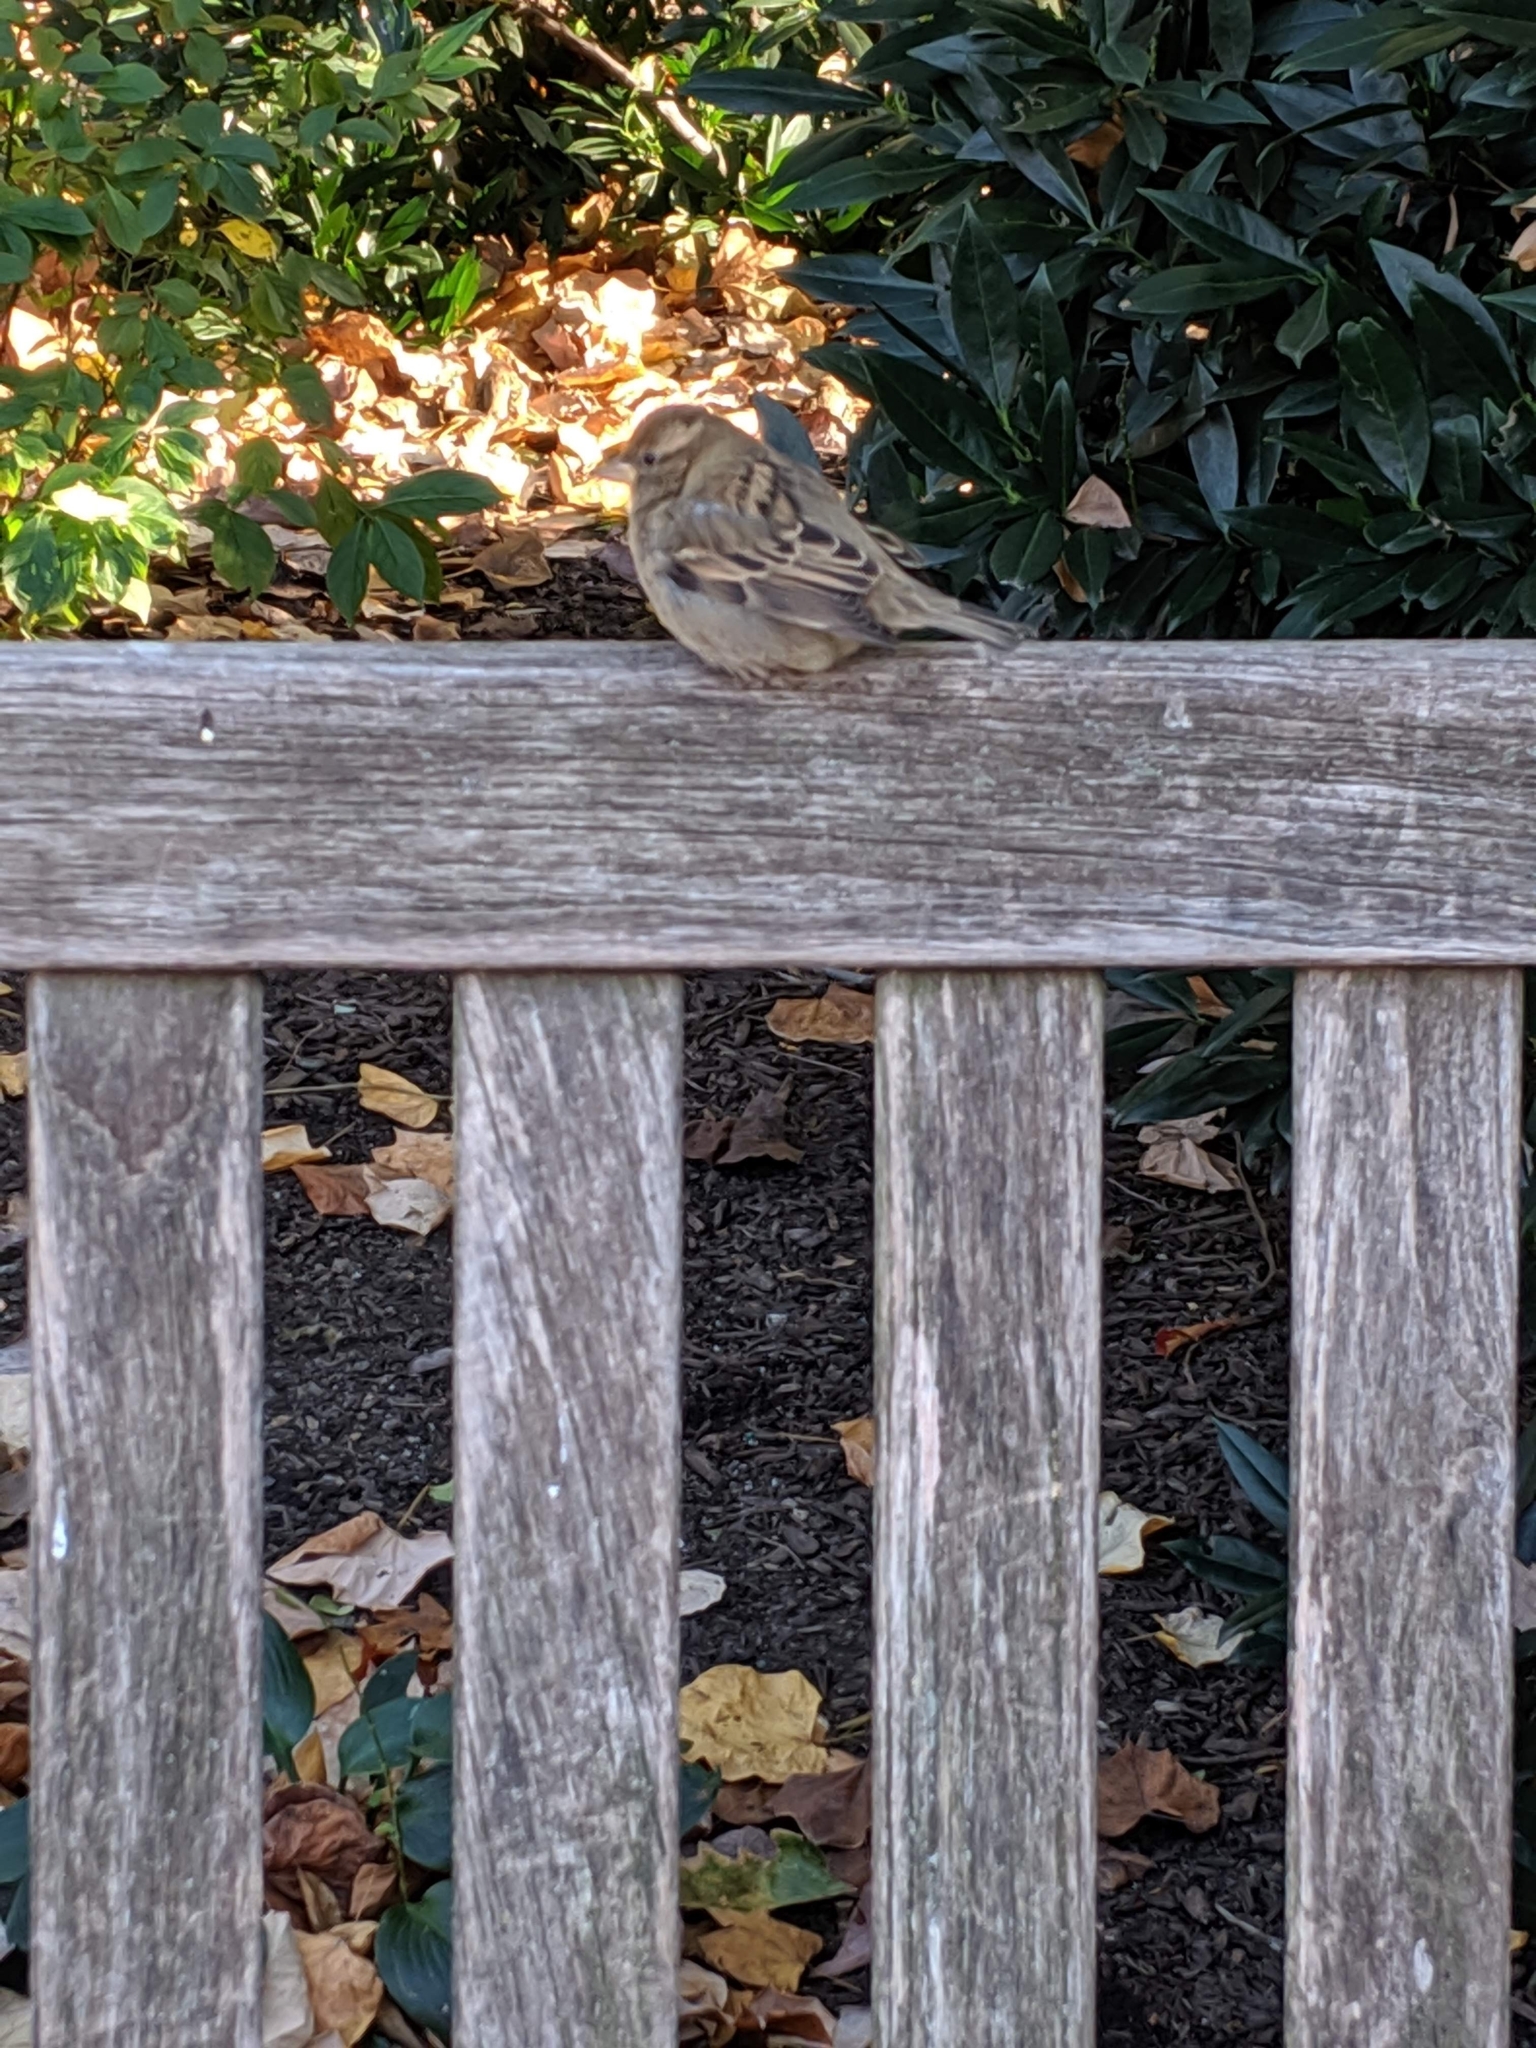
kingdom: Animalia
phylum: Chordata
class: Aves
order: Passeriformes
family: Passeridae
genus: Passer
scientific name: Passer domesticus
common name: House sparrow
